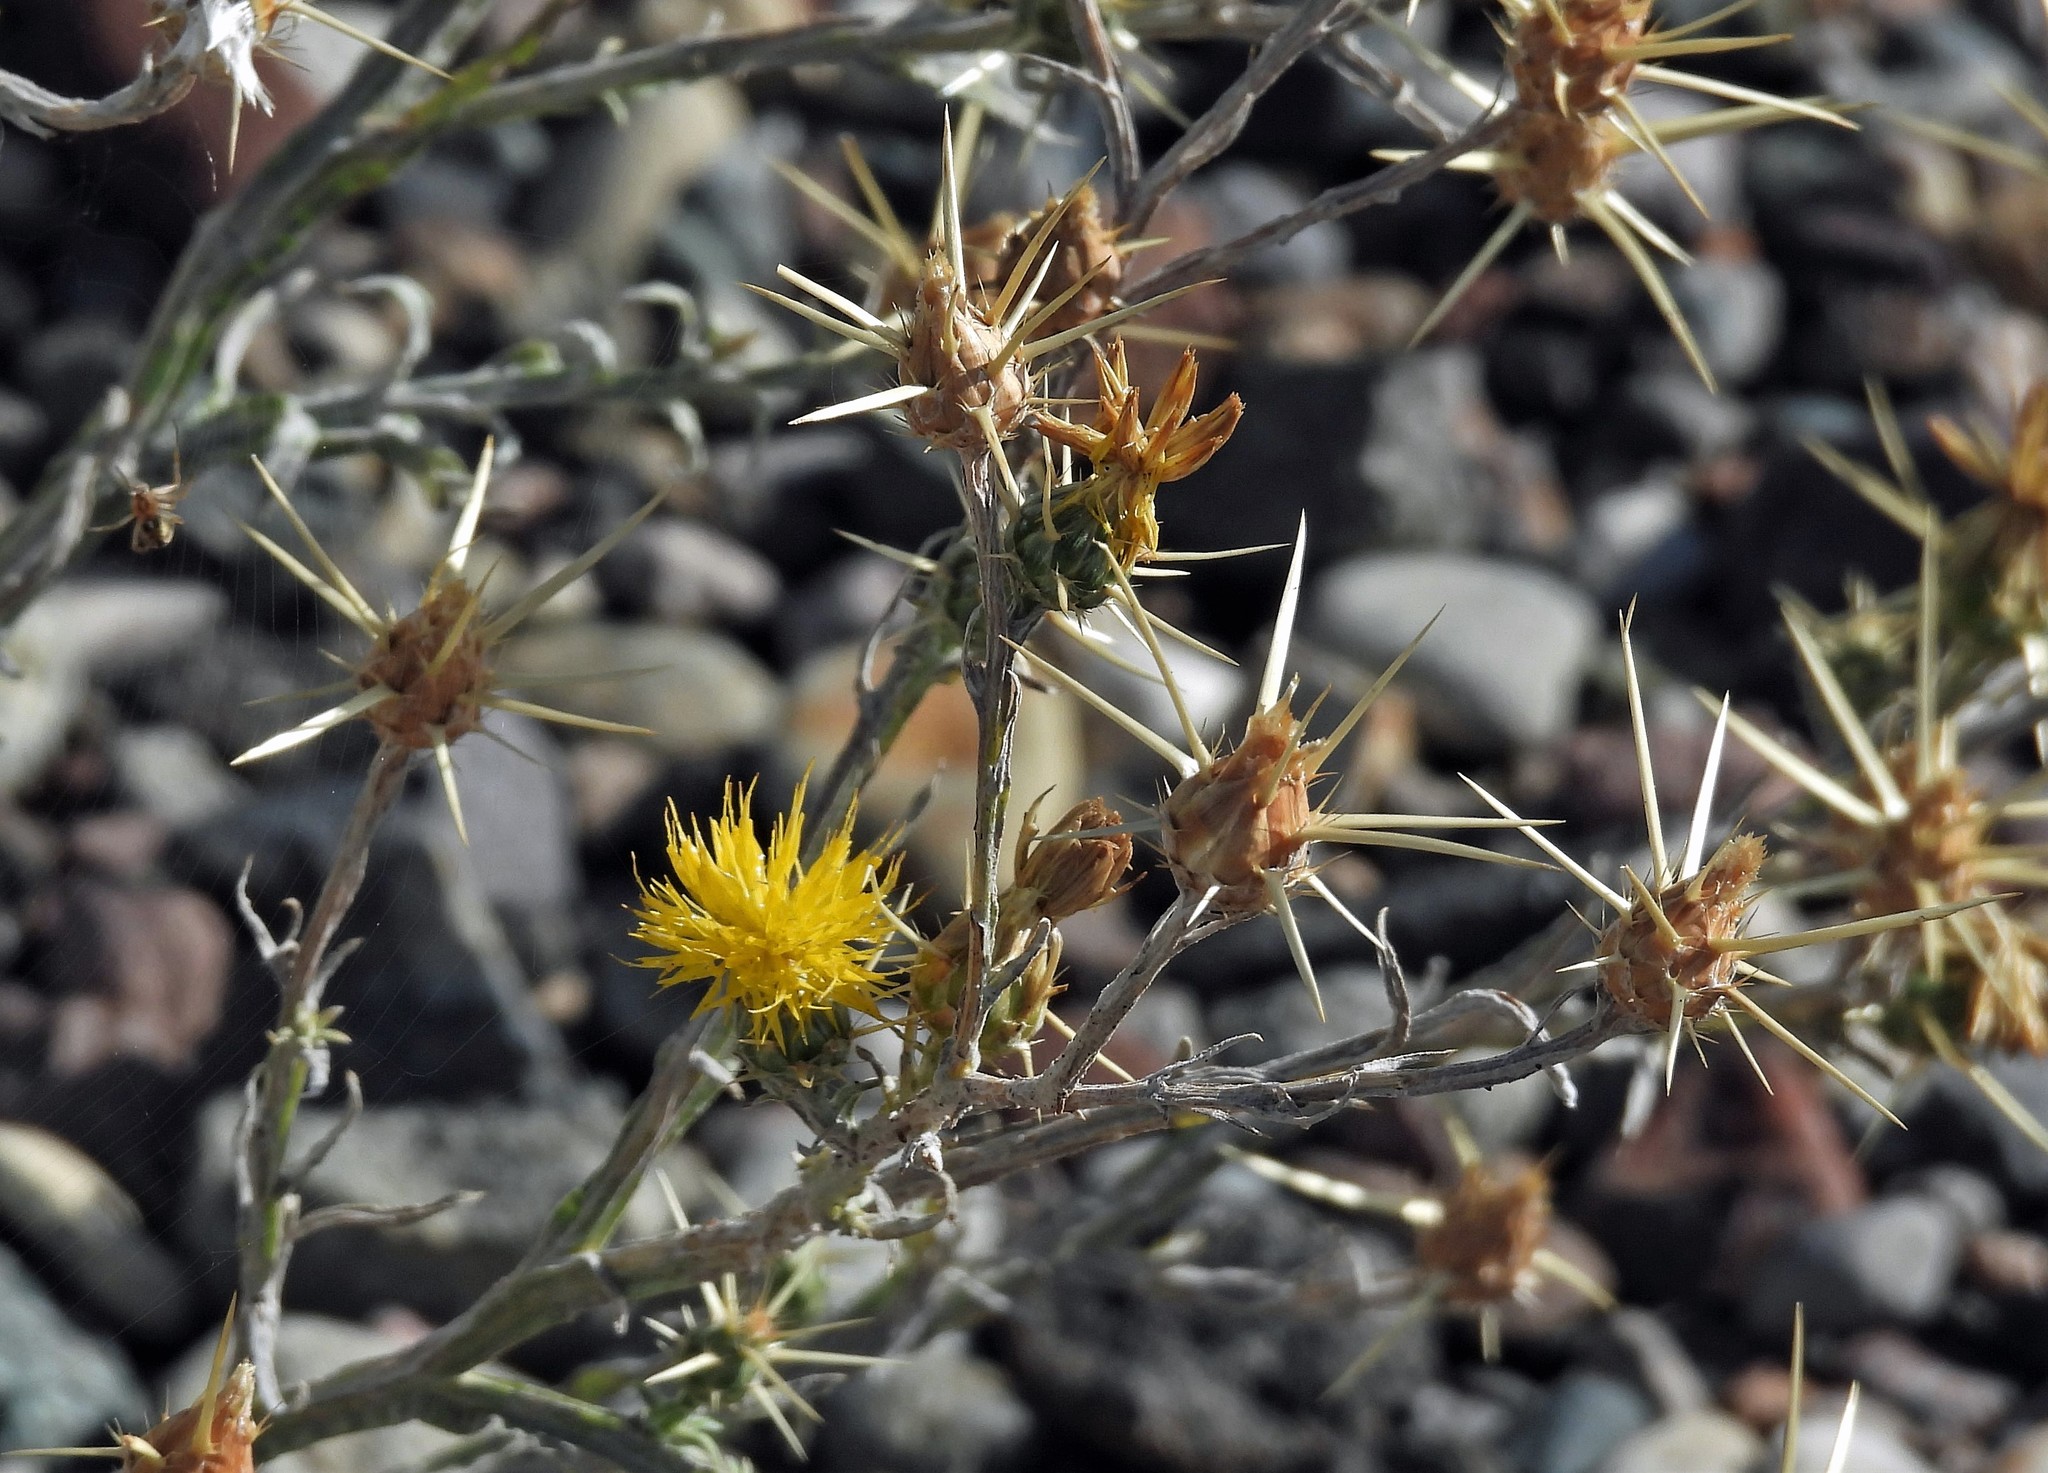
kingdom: Plantae
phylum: Tracheophyta
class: Magnoliopsida
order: Asterales
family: Asteraceae
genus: Centaurea
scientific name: Centaurea solstitialis
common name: Yellow star-thistle
